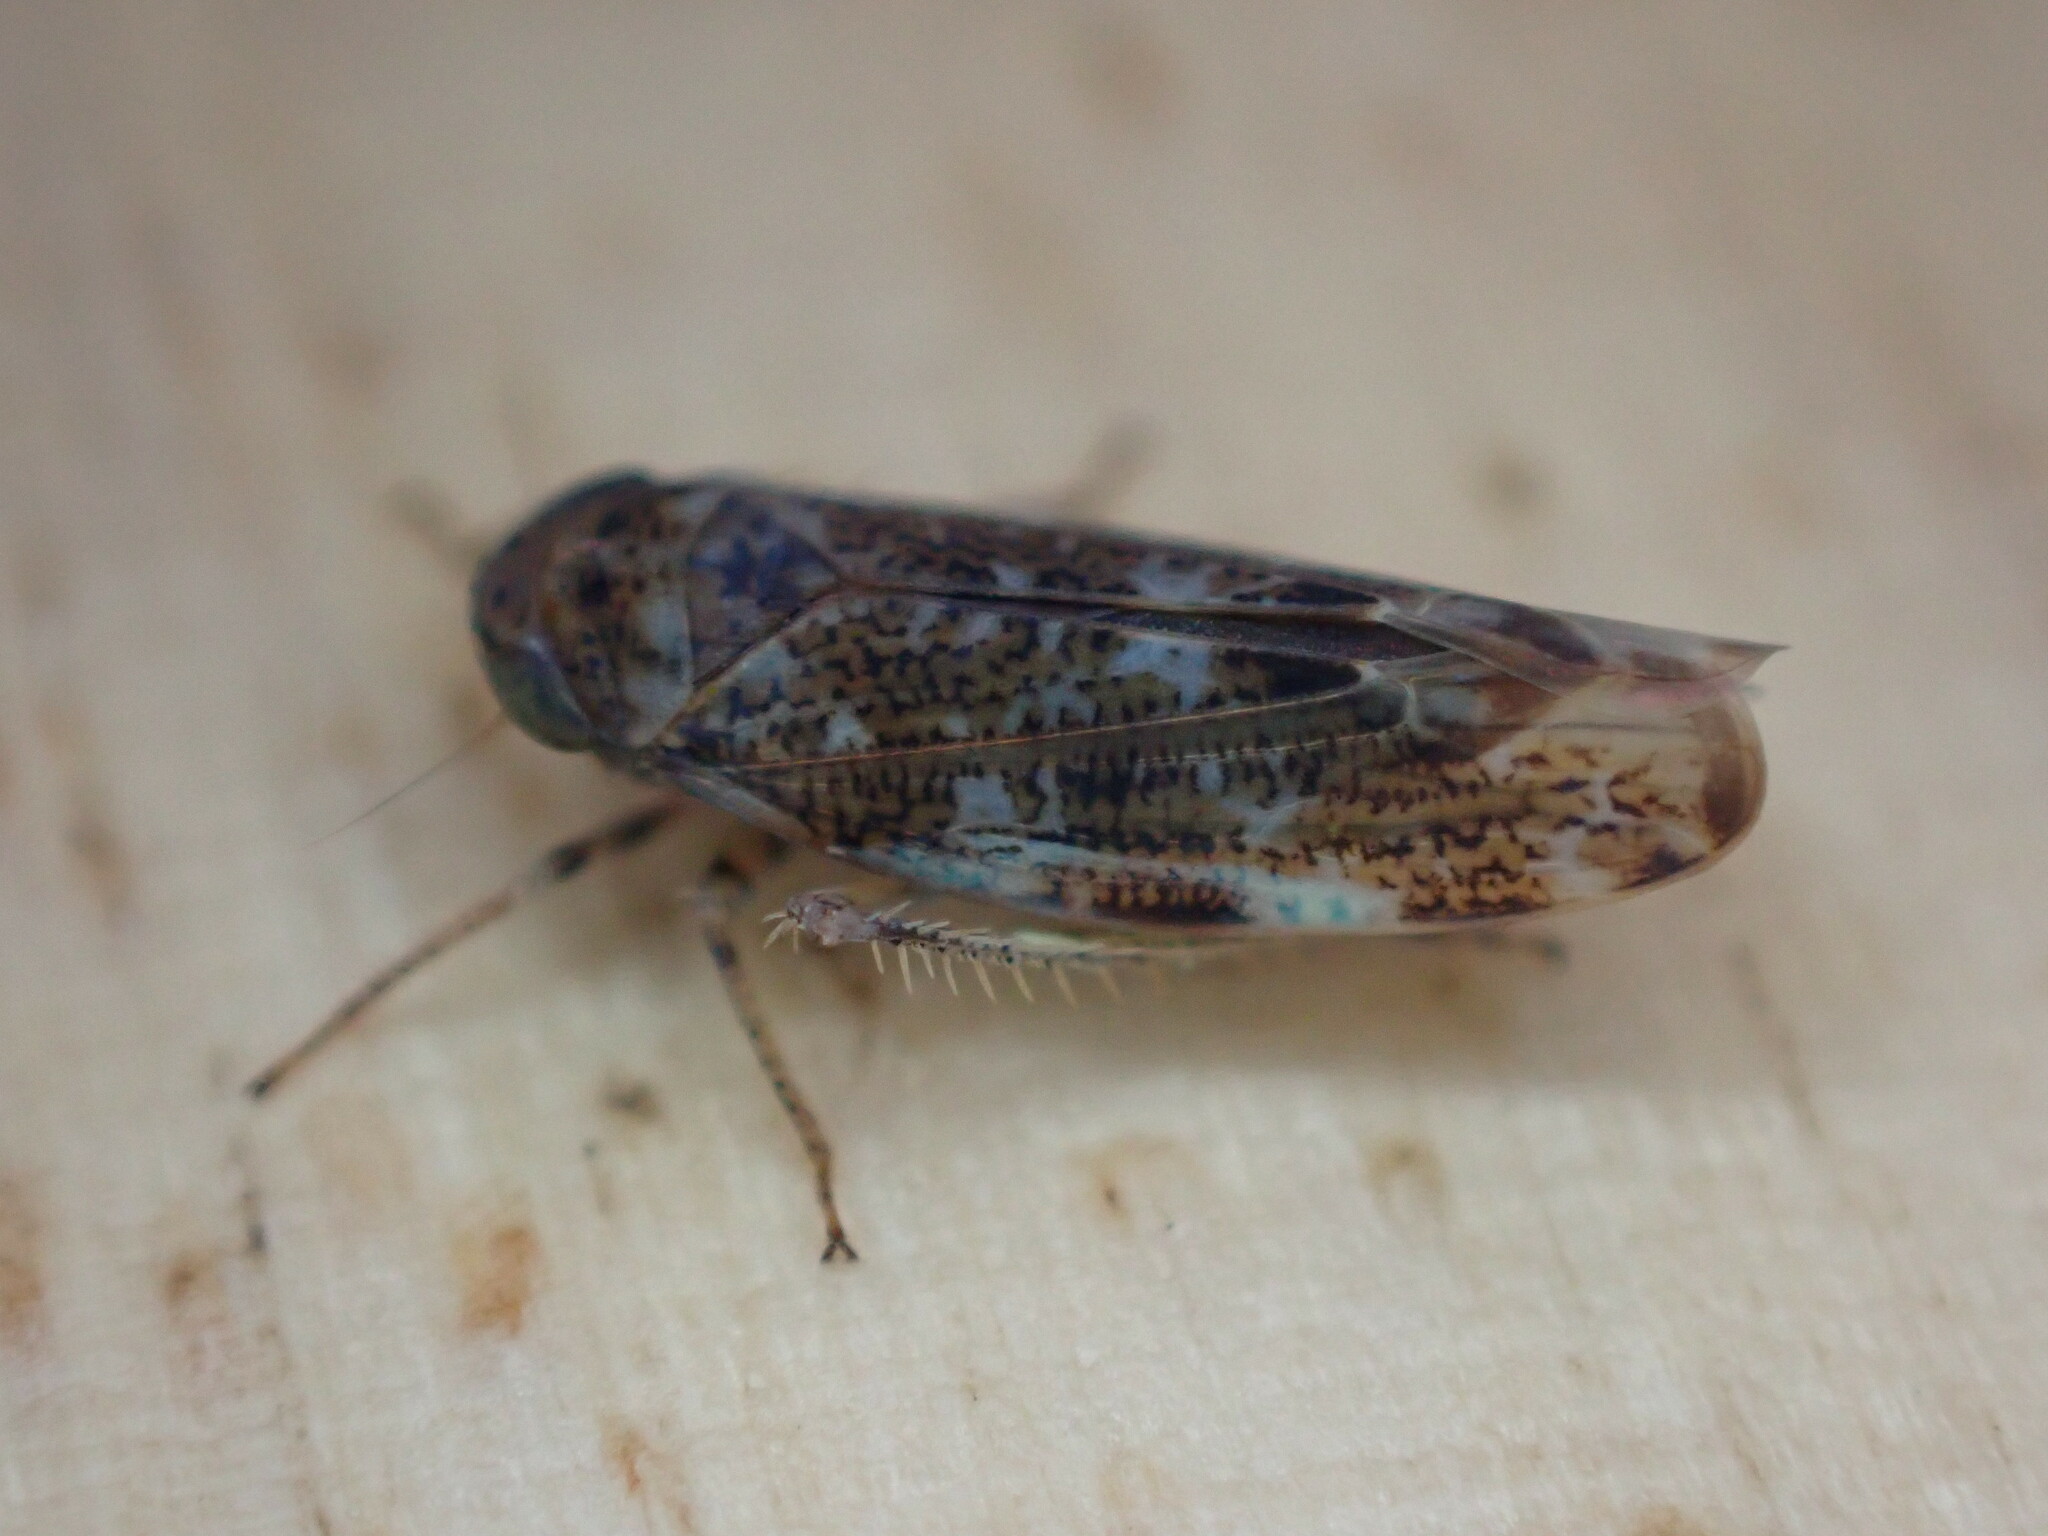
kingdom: Animalia
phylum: Arthropoda
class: Insecta
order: Hemiptera
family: Cicadellidae
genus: Allygus
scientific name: Allygus mixtus
